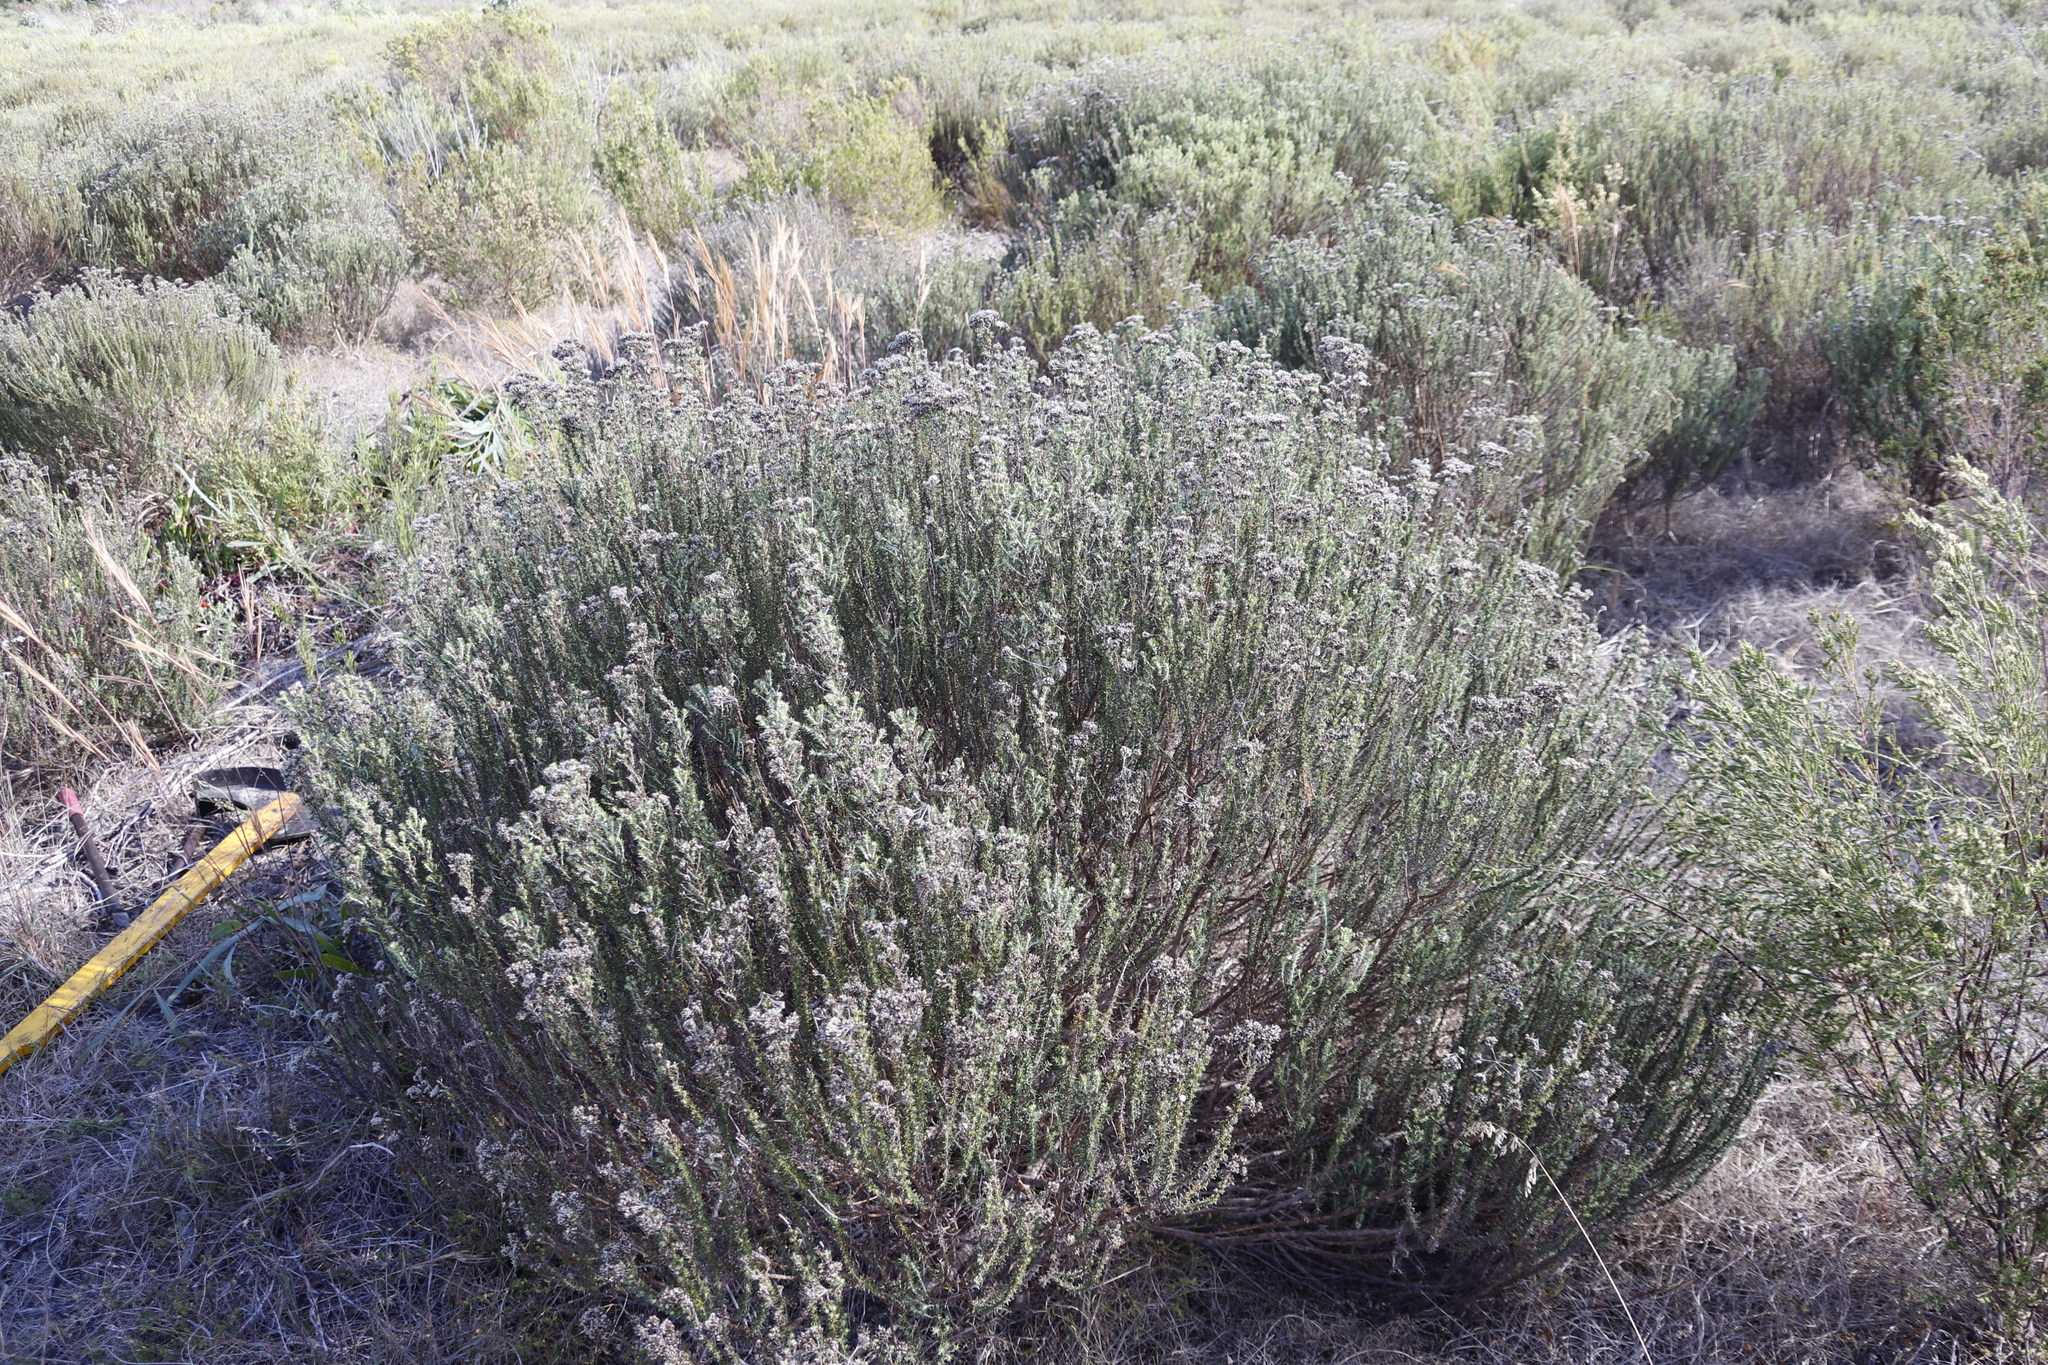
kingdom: Plantae
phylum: Tracheophyta
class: Magnoliopsida
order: Asterales
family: Asteraceae
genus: Metalasia
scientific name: Metalasia densa
